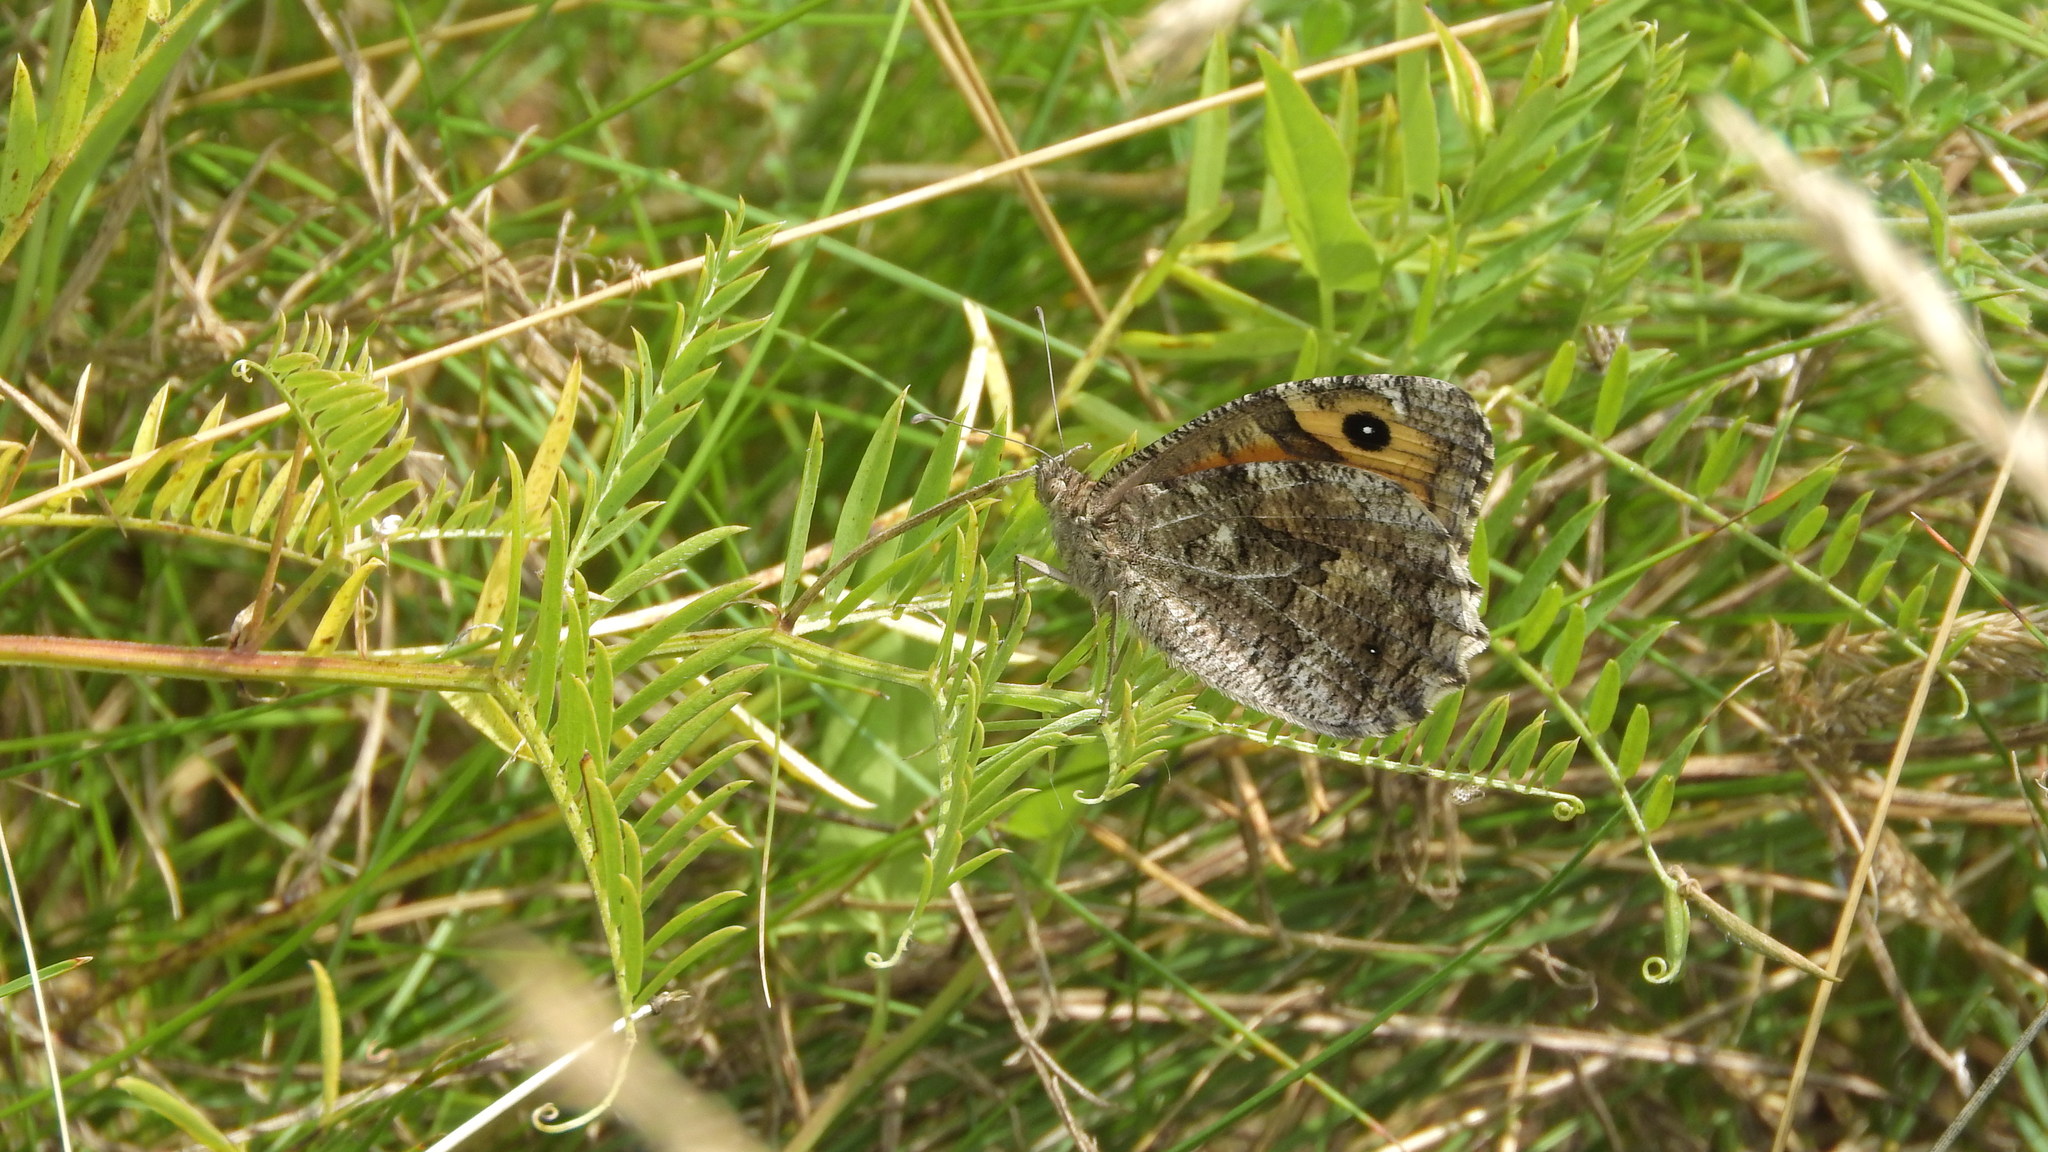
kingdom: Animalia
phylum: Arthropoda
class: Insecta
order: Lepidoptera
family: Nymphalidae
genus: Hipparchia
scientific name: Hipparchia semele
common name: Grayling
